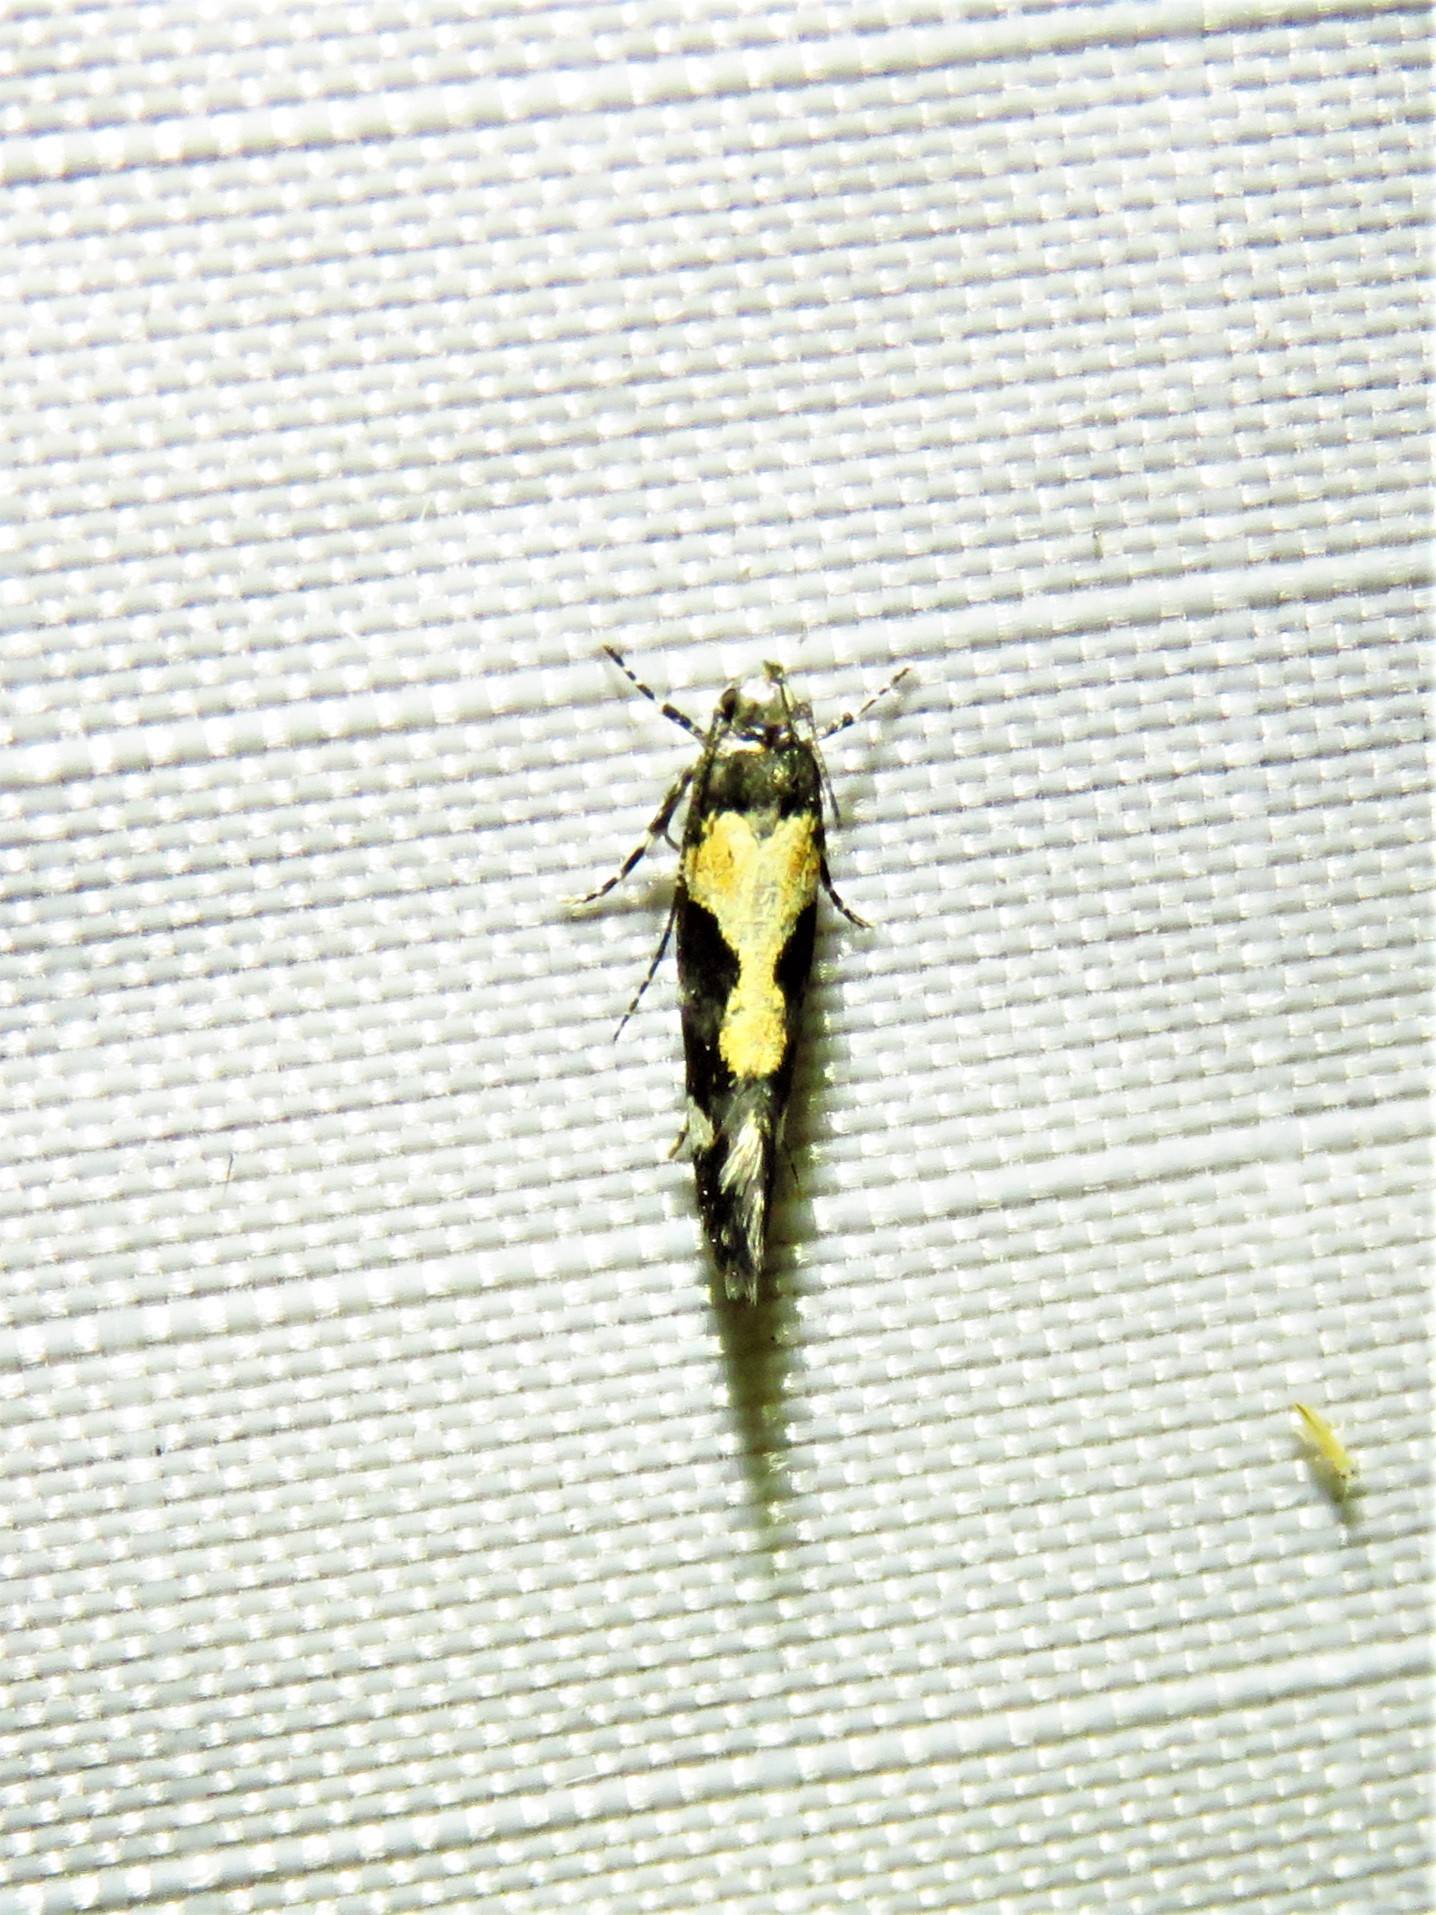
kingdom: Animalia
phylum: Arthropoda
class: Insecta
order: Lepidoptera
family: Gelechiidae
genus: Stegasta
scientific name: Stegasta bosqueella
